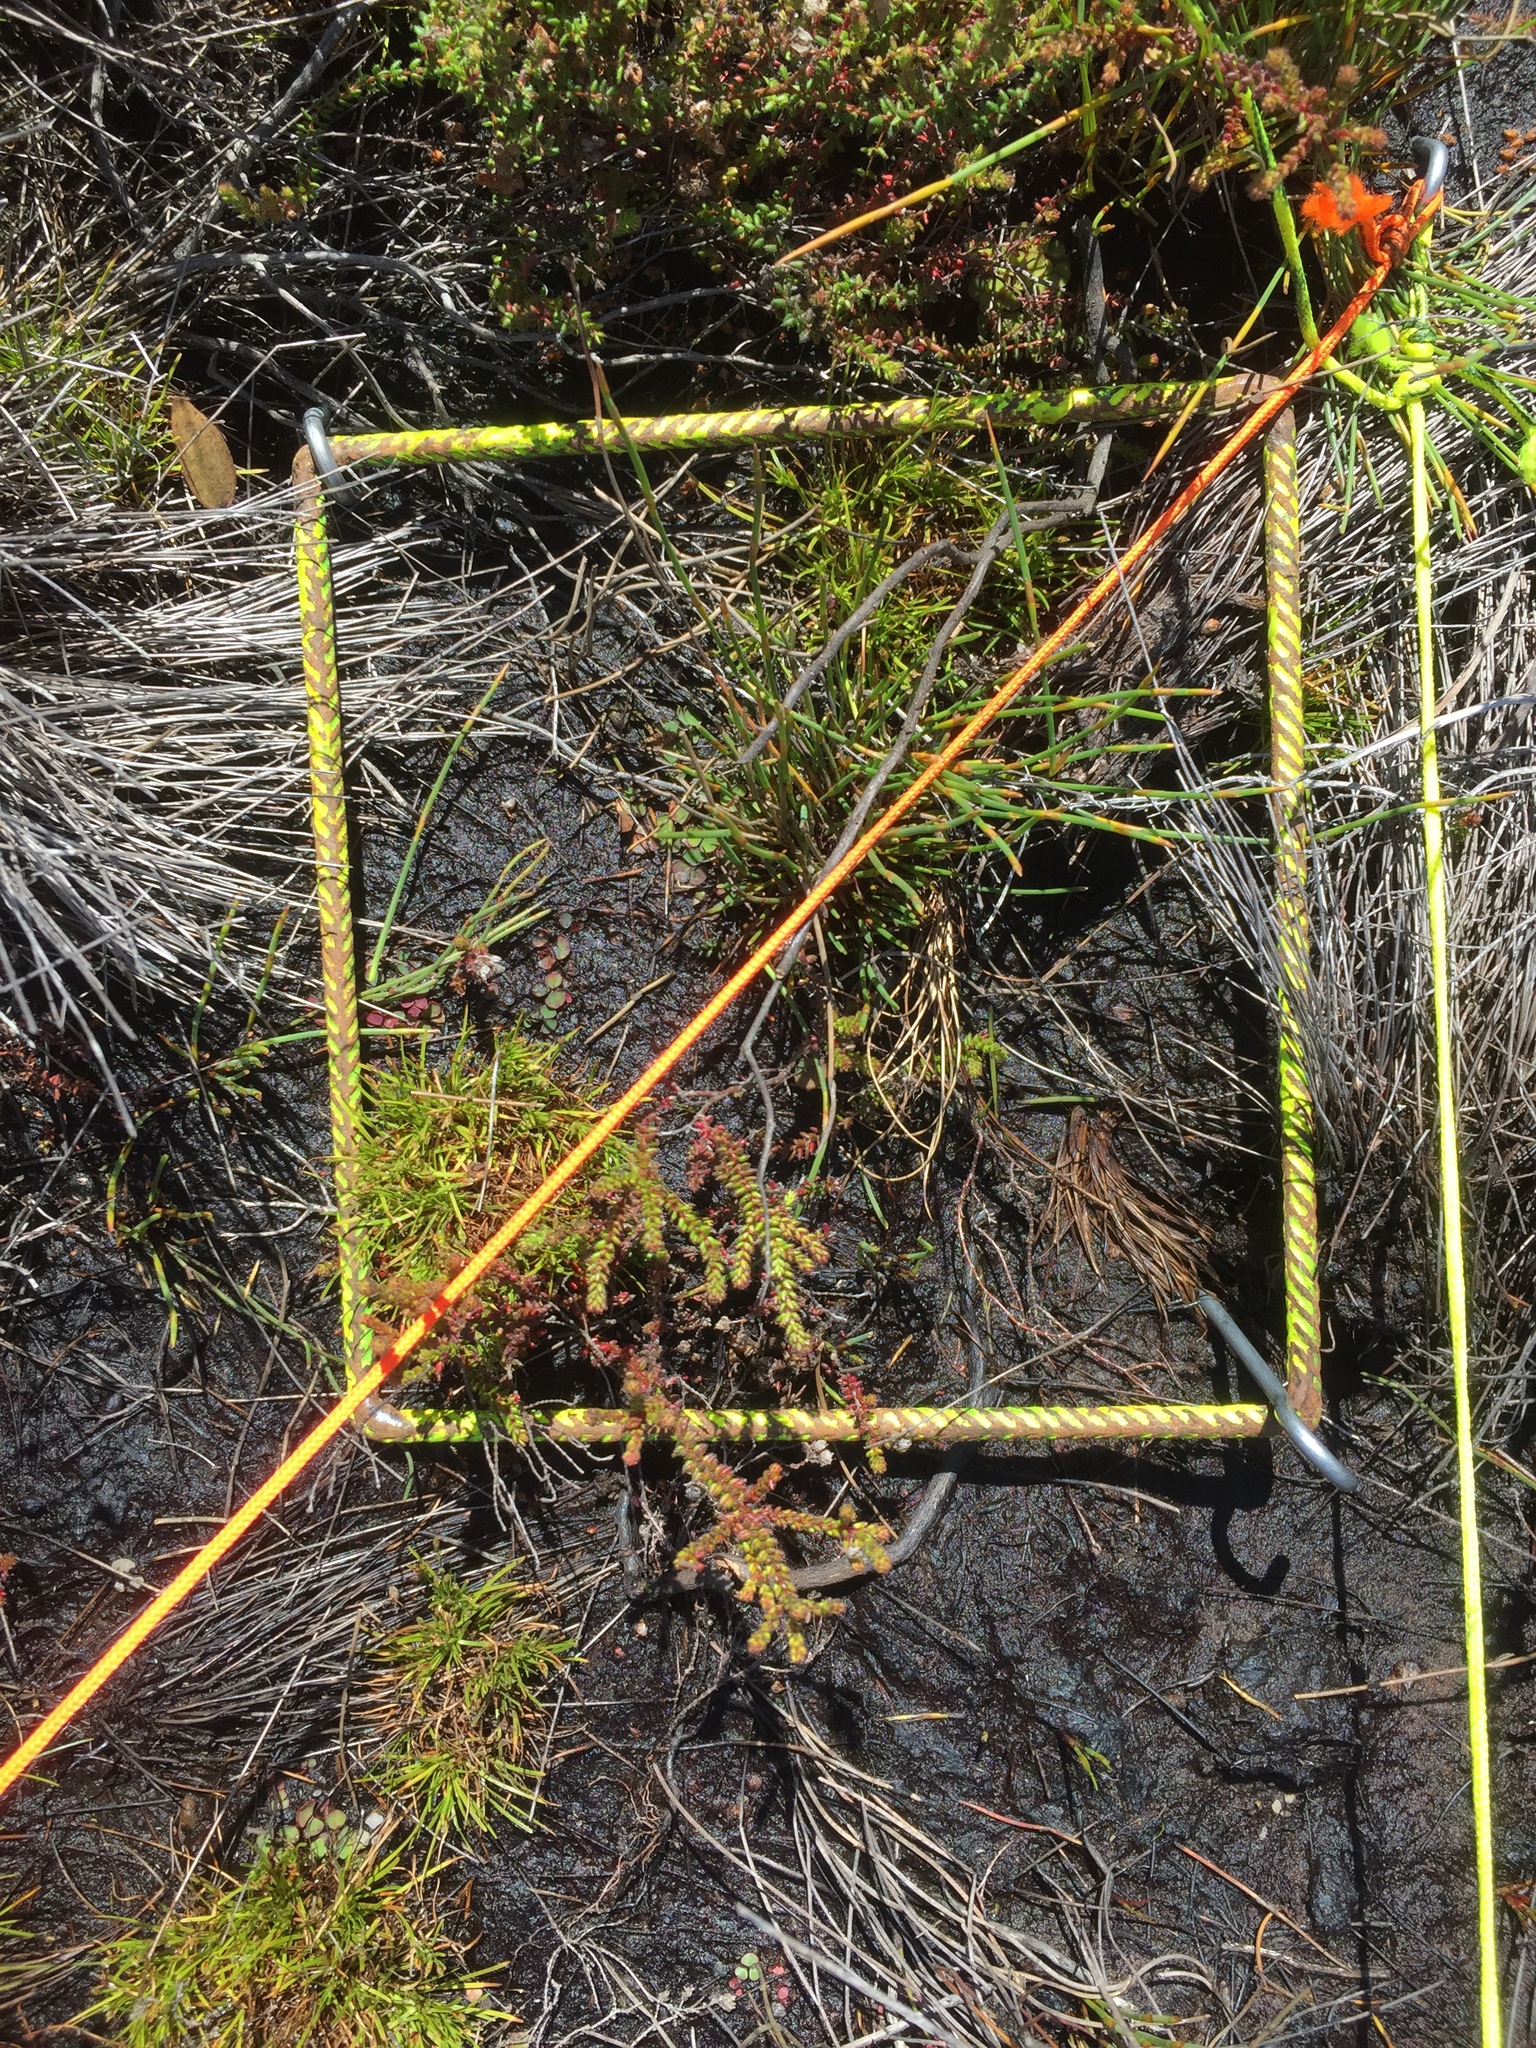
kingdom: Plantae
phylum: Tracheophyta
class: Magnoliopsida
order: Ericales
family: Ericaceae
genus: Erica
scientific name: Erica clavisepala
